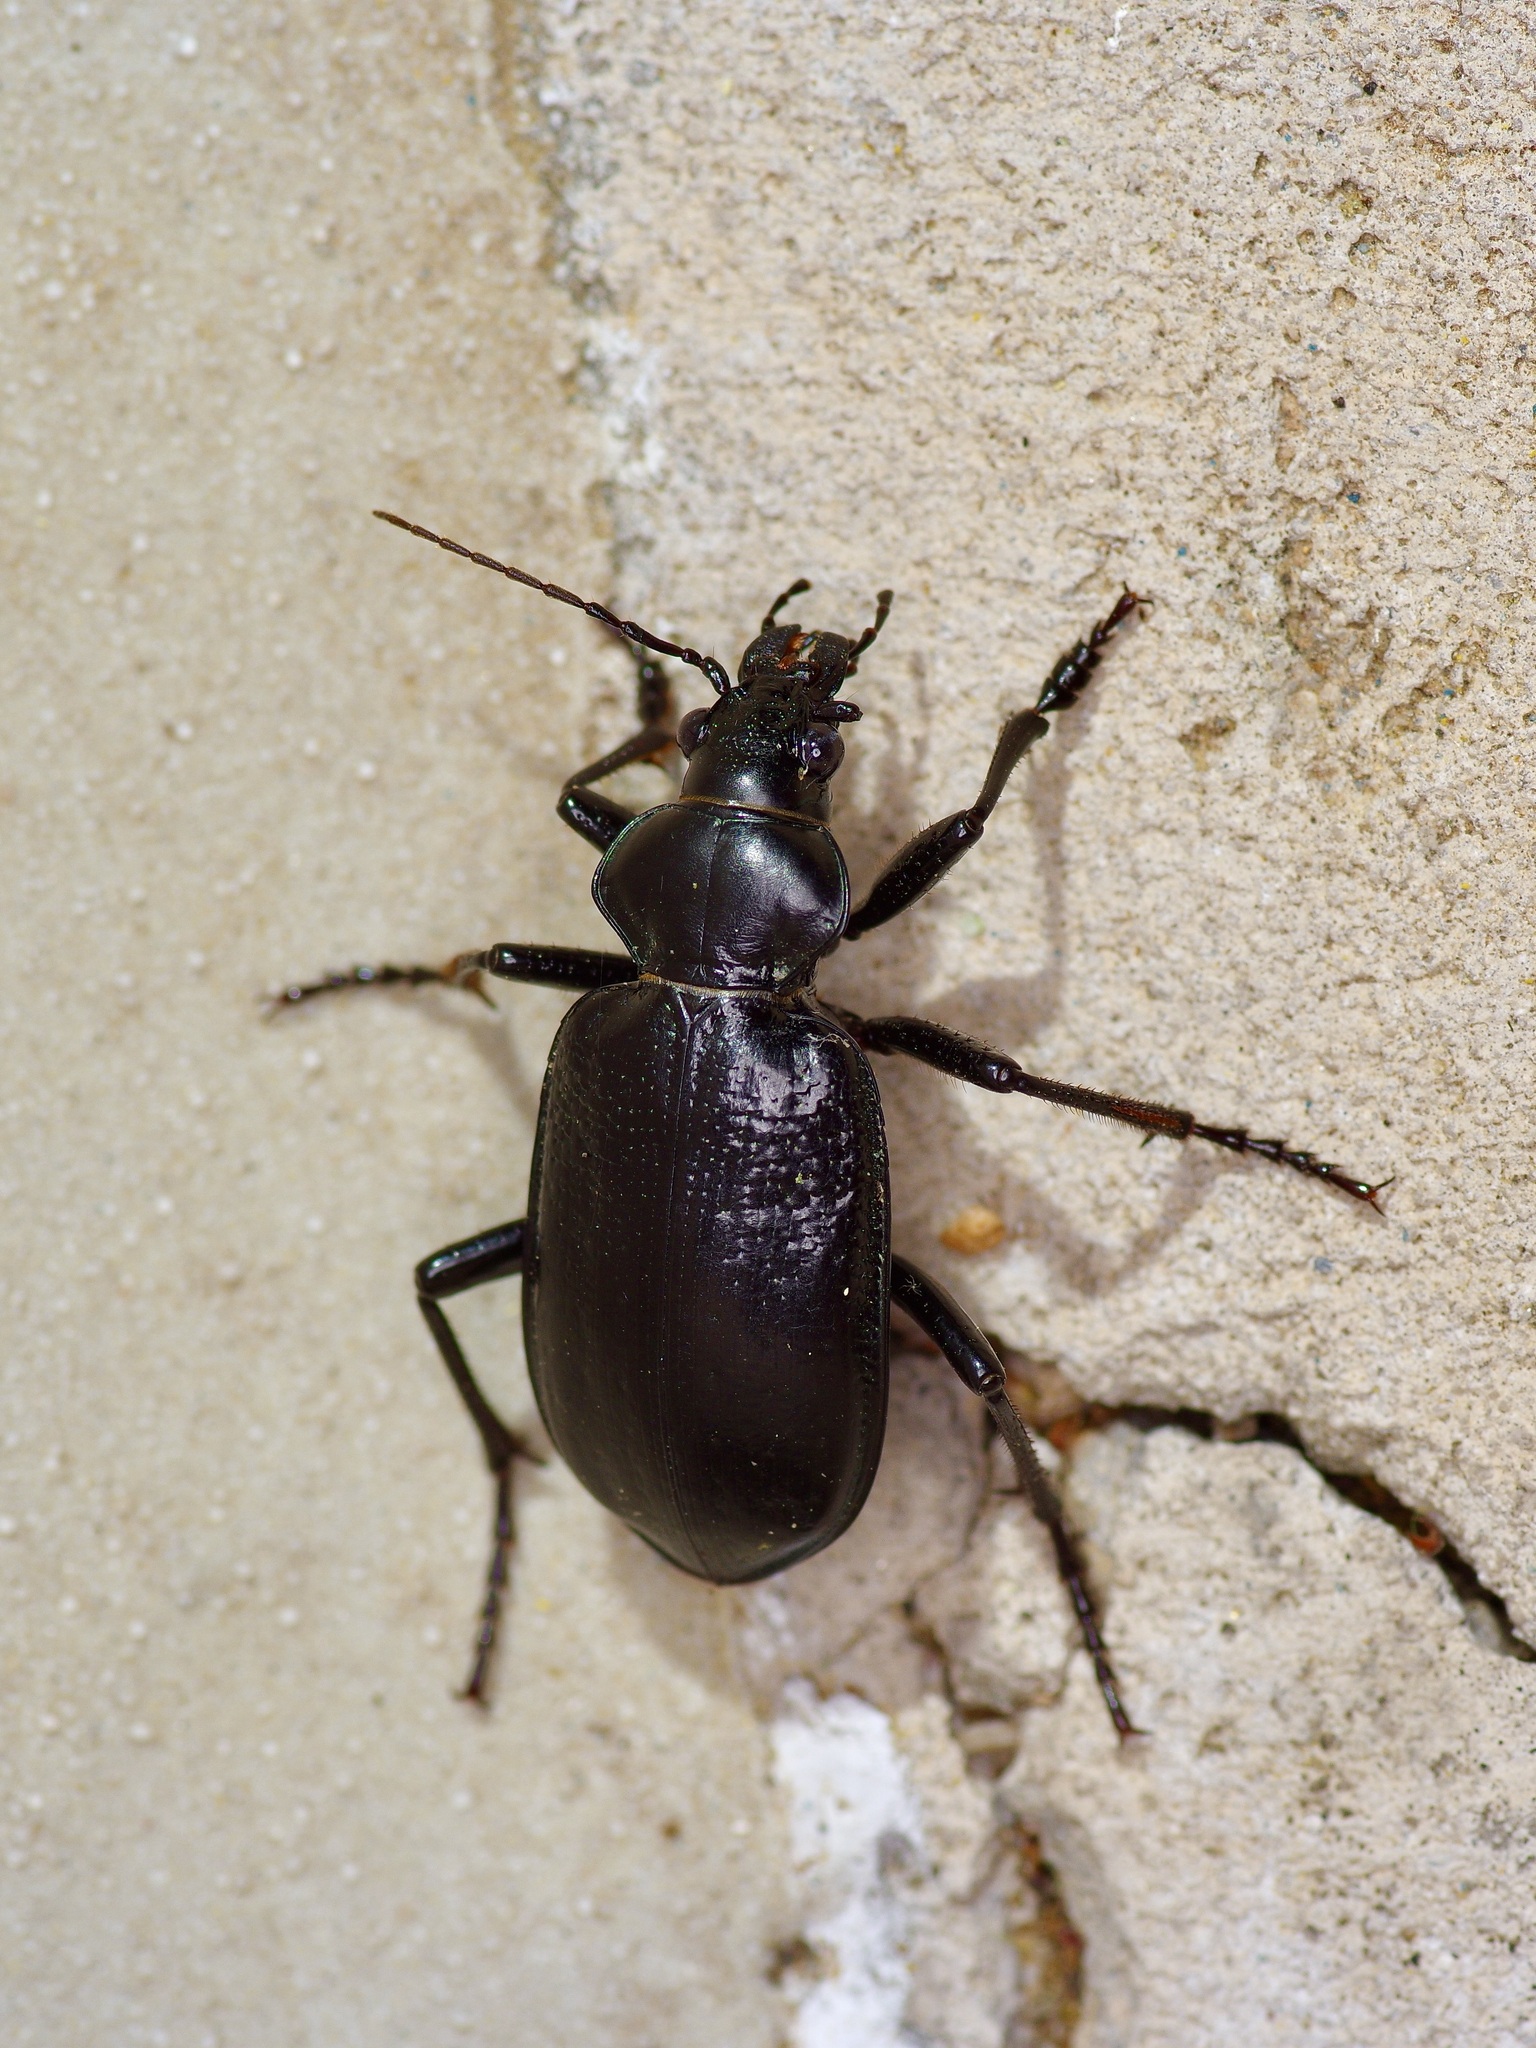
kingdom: Animalia
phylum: Arthropoda
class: Insecta
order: Coleoptera
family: Carabidae
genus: Calosoma
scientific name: Calosoma marginale
